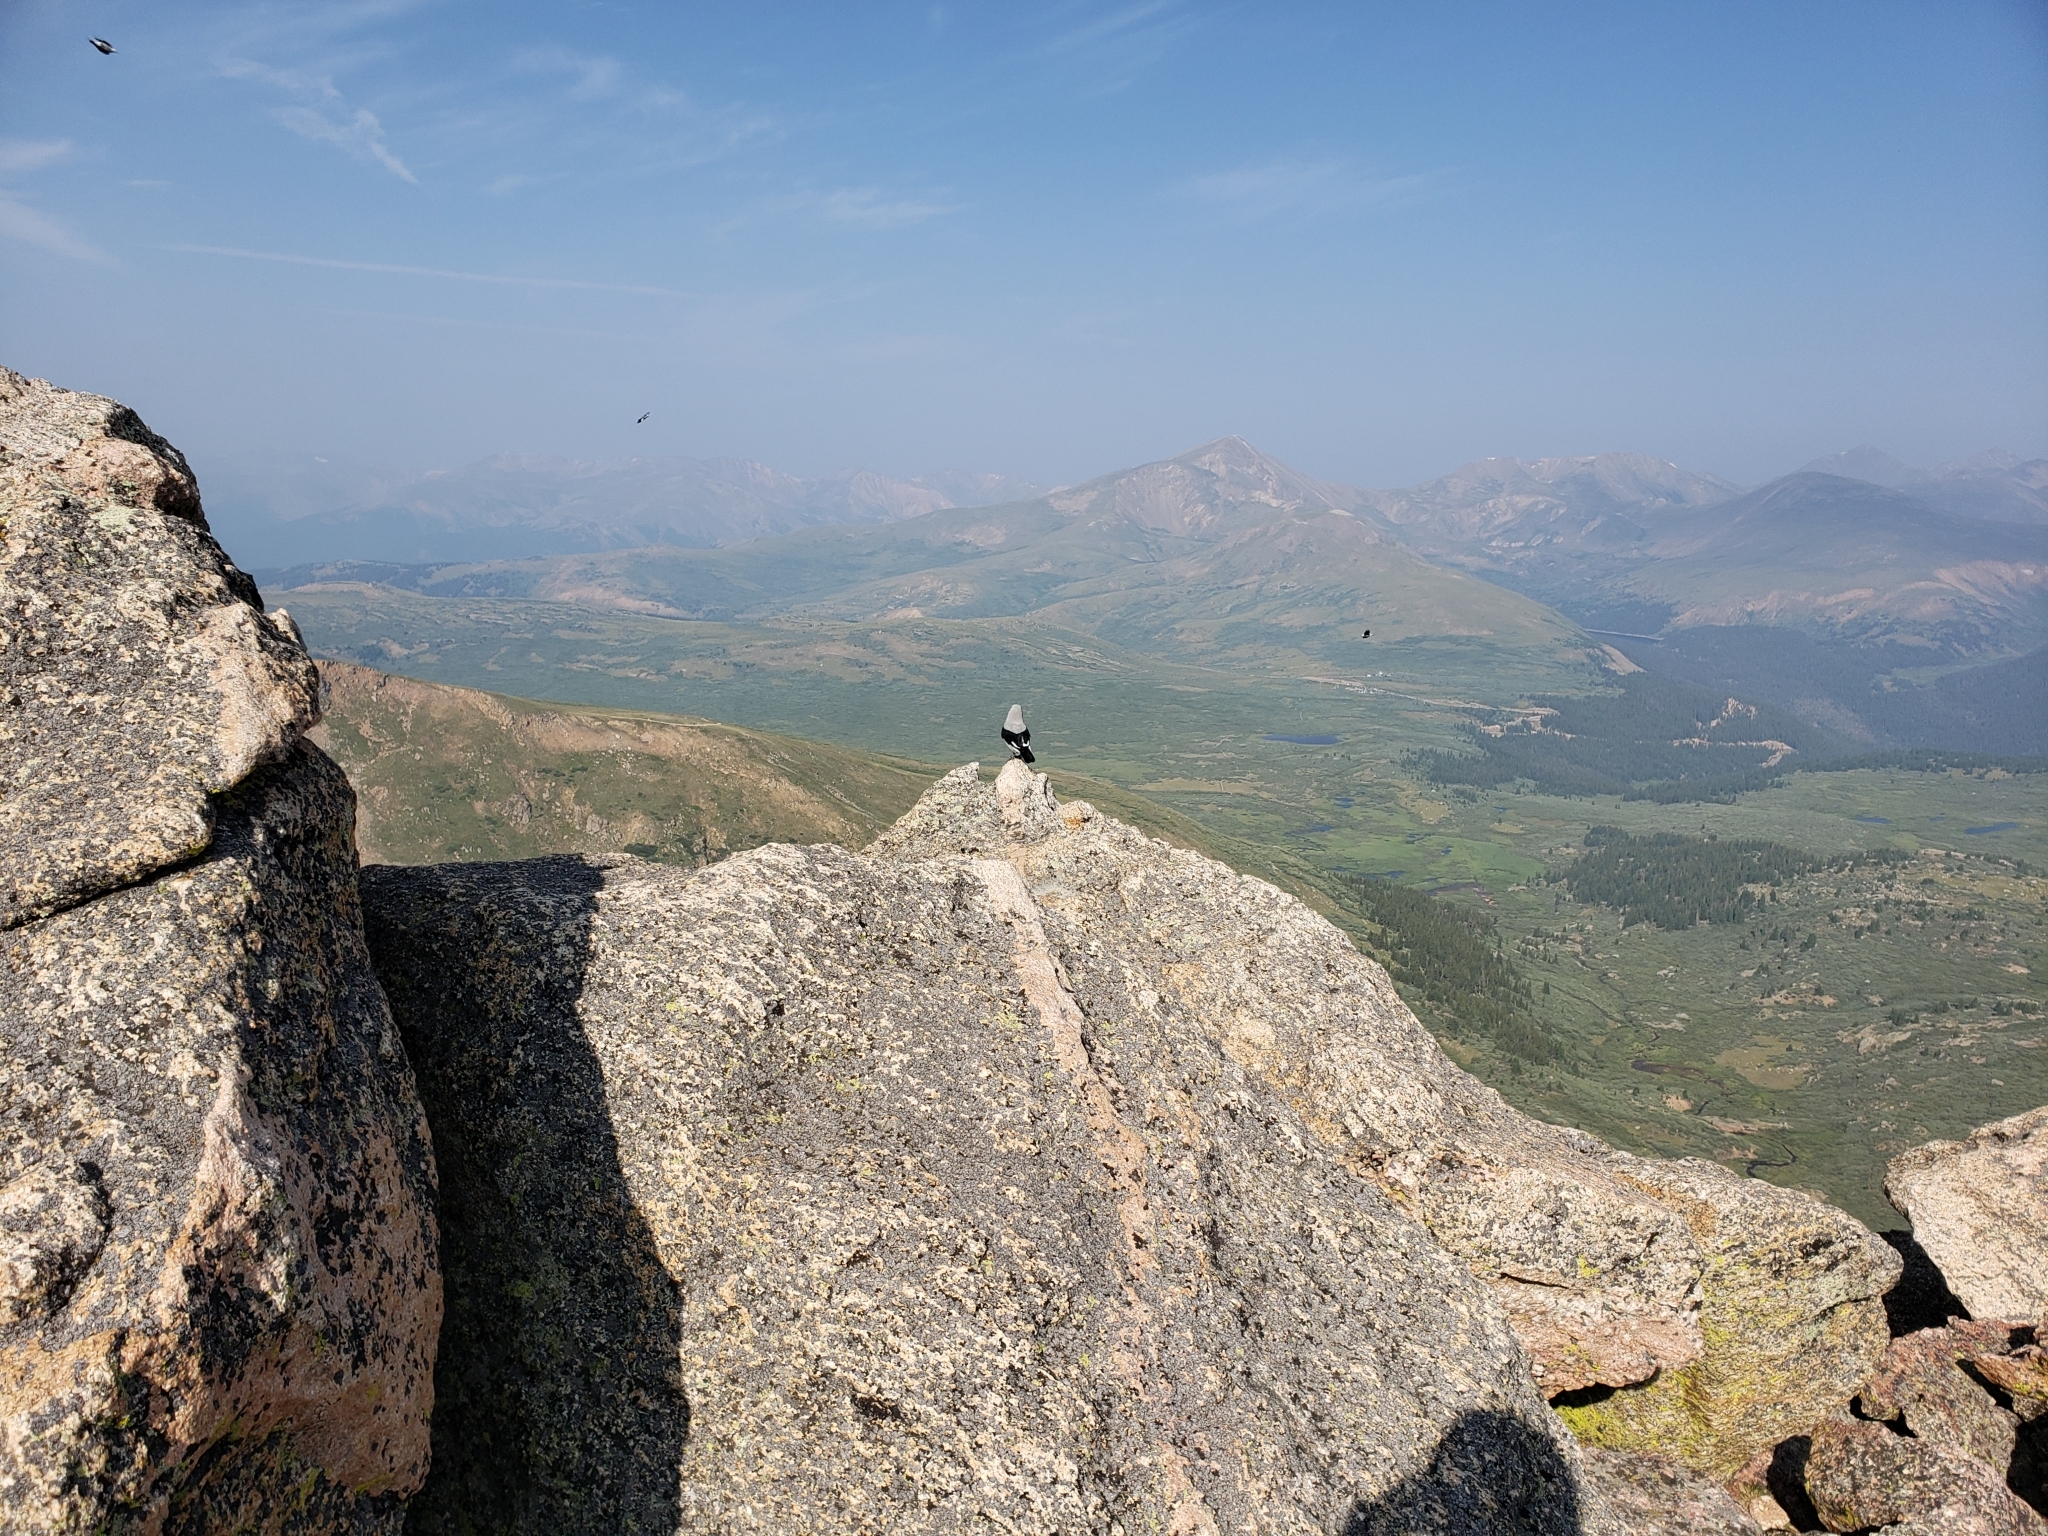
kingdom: Animalia
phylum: Chordata
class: Aves
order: Passeriformes
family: Corvidae
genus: Nucifraga
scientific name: Nucifraga columbiana
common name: Clark's nutcracker
